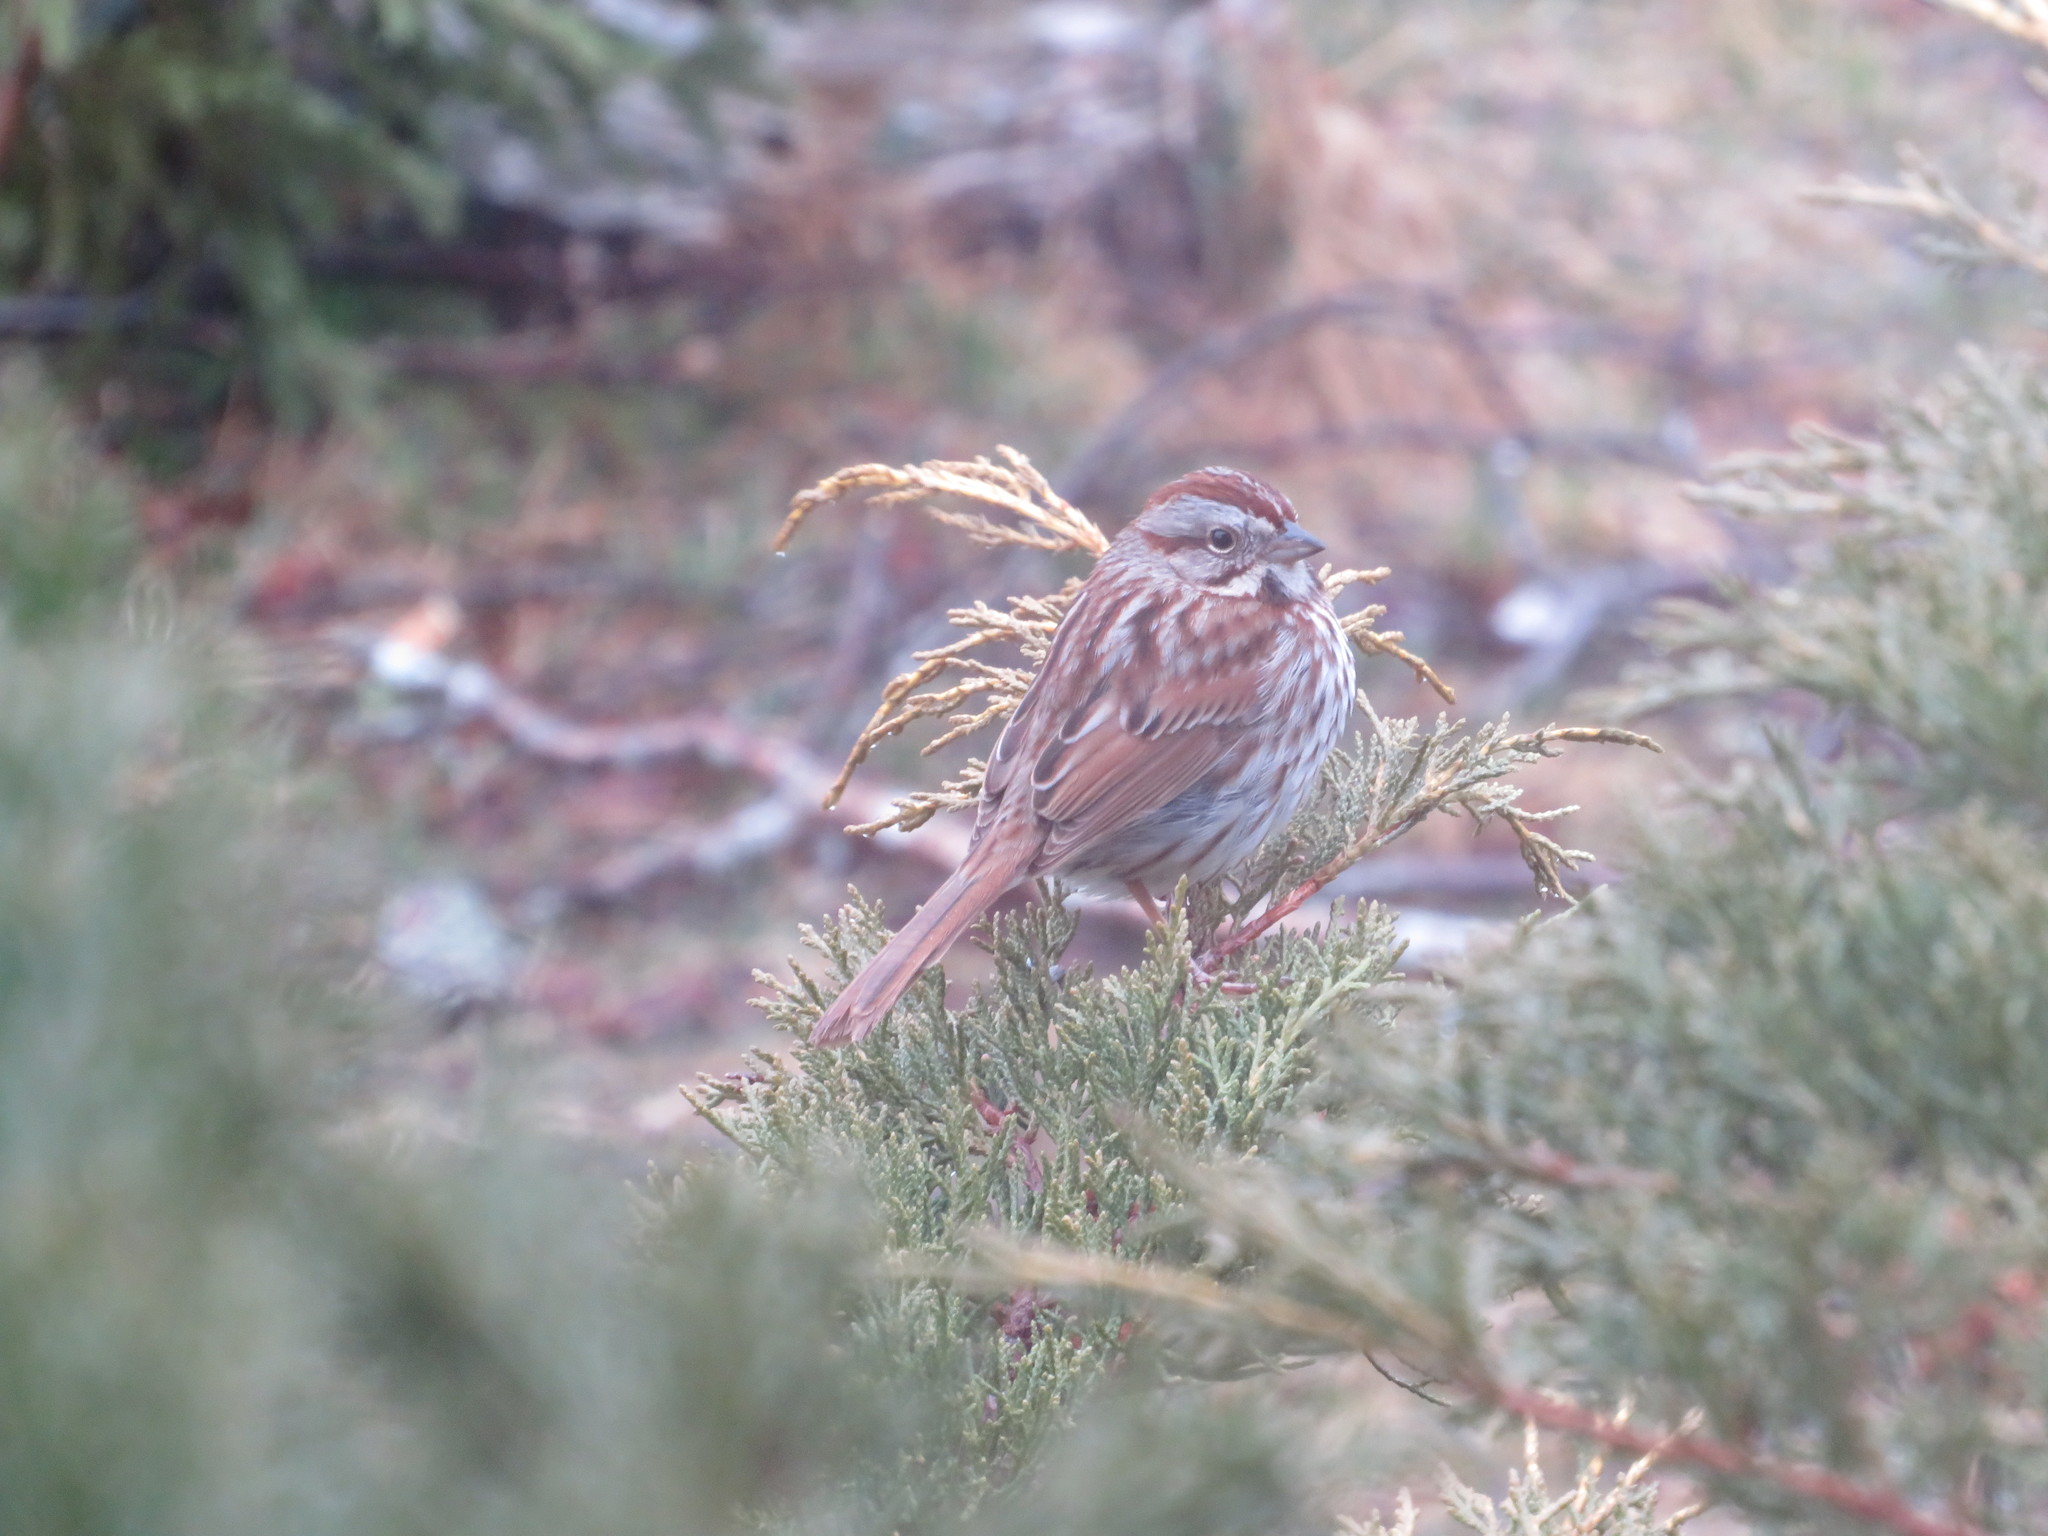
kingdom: Animalia
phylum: Chordata
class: Aves
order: Passeriformes
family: Passerellidae
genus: Melospiza
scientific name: Melospiza melodia
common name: Song sparrow
